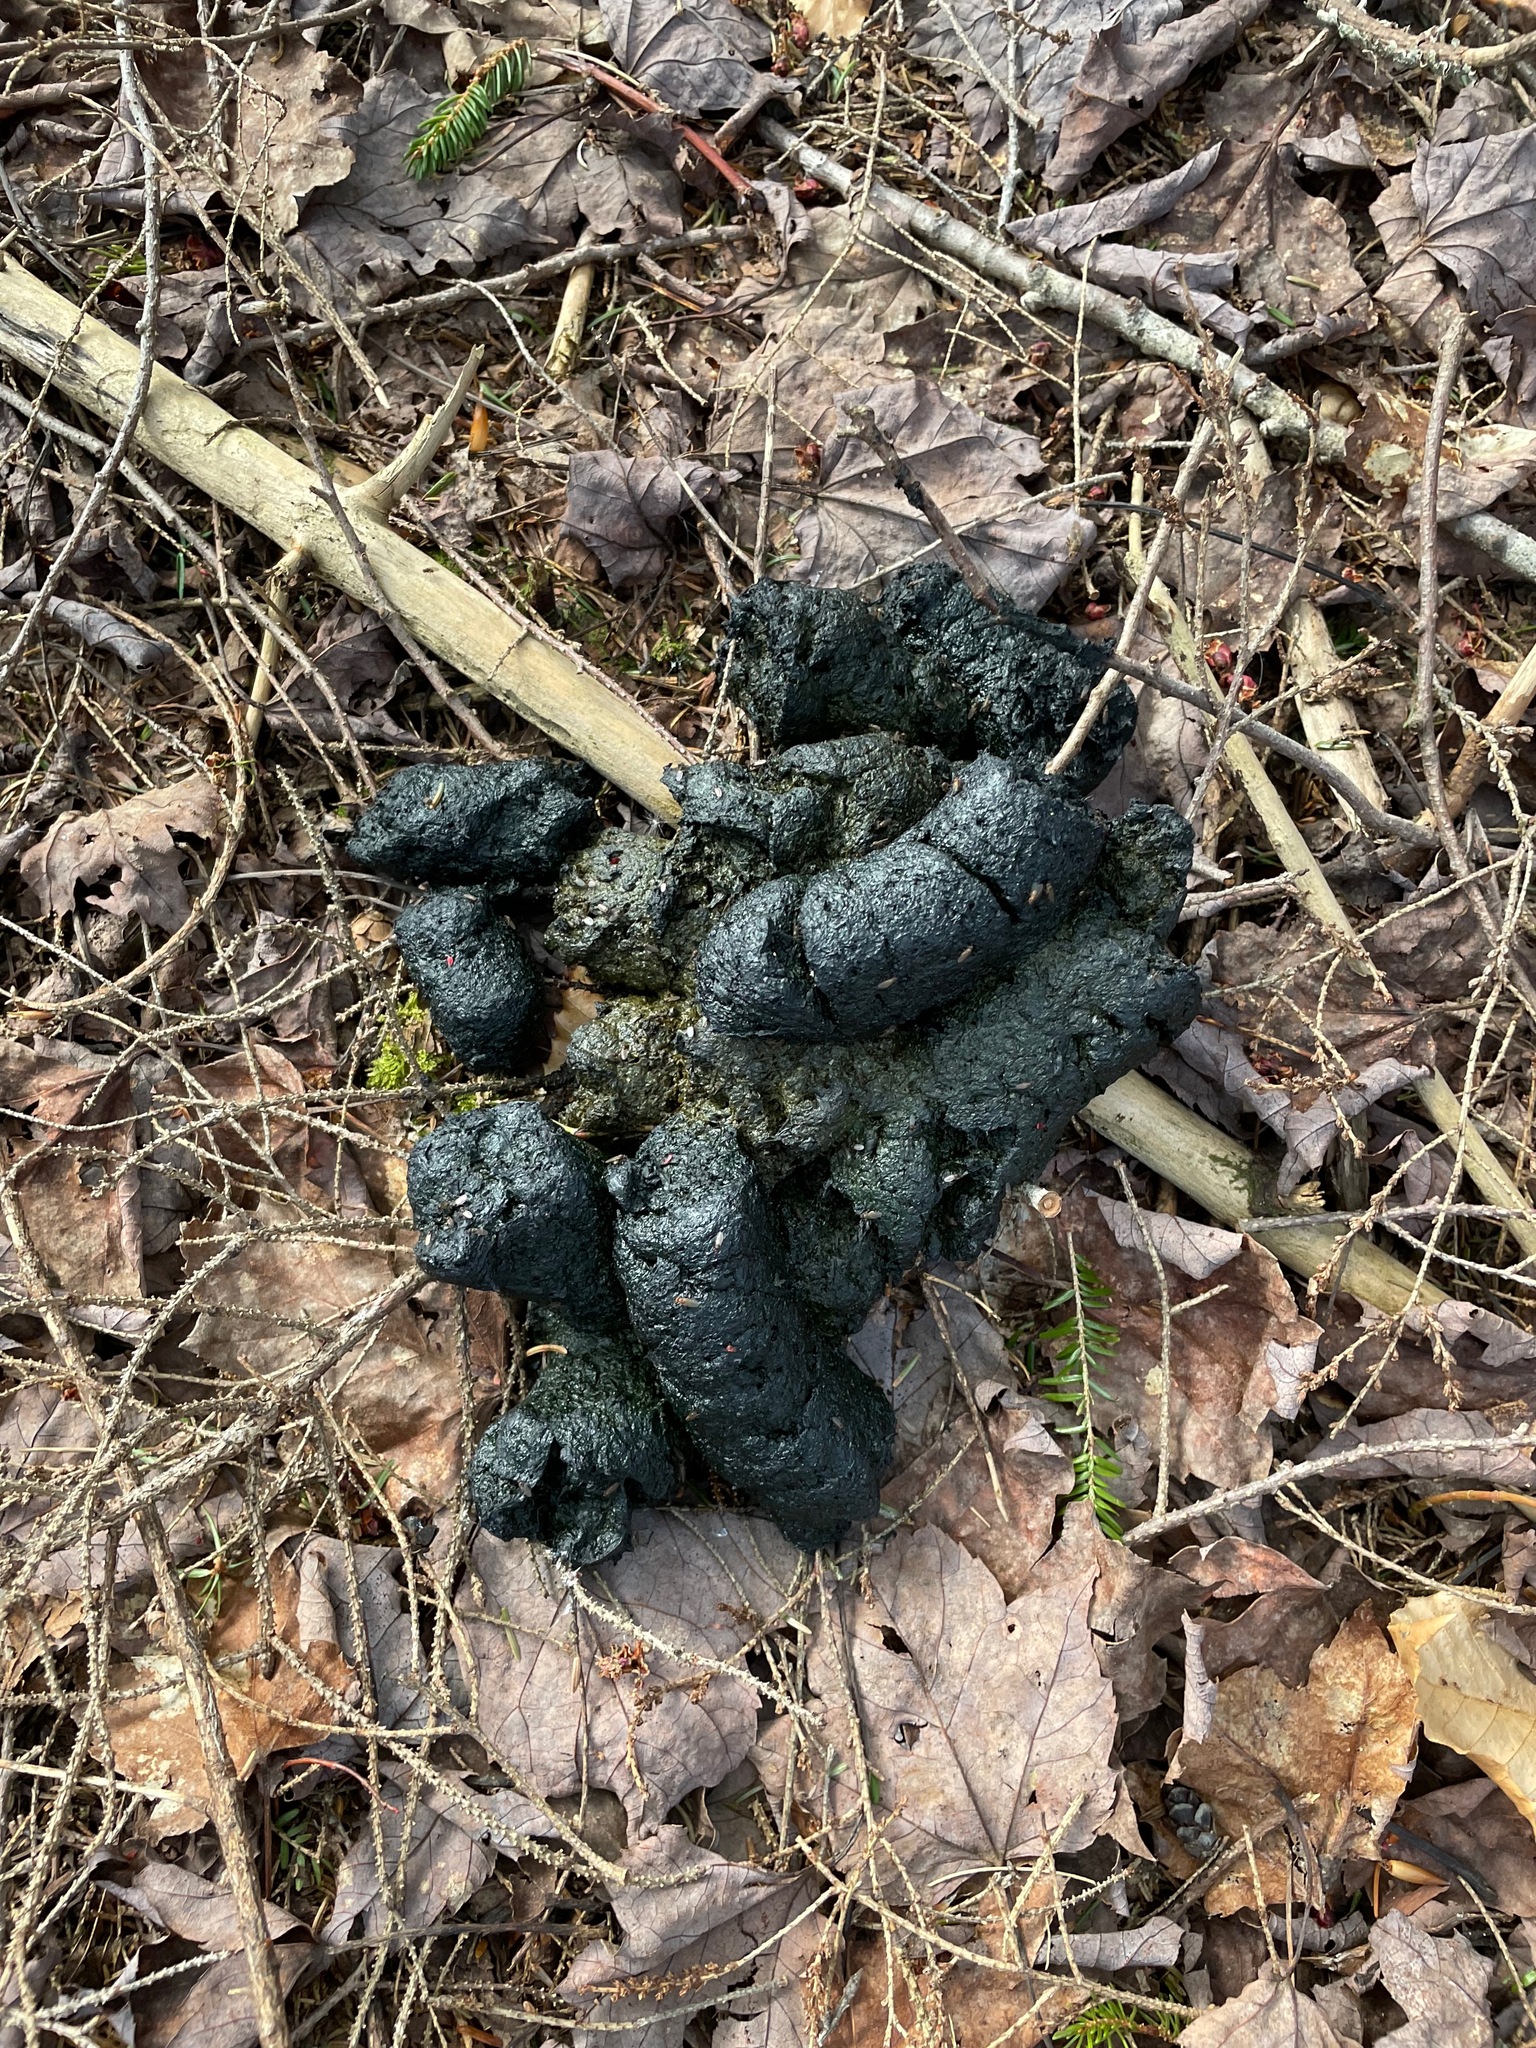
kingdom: Animalia
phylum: Chordata
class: Mammalia
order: Carnivora
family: Ursidae
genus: Ursus
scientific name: Ursus americanus
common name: American black bear
